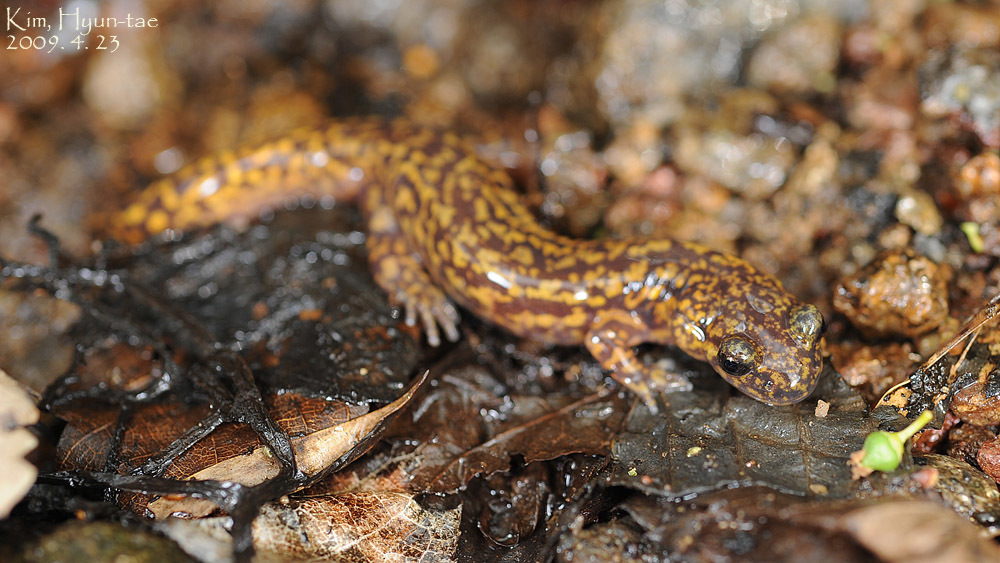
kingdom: Animalia
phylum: Chordata
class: Amphibia
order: Caudata
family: Hynobiidae
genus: Onychodactylus
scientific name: Onychodactylus koreanus
